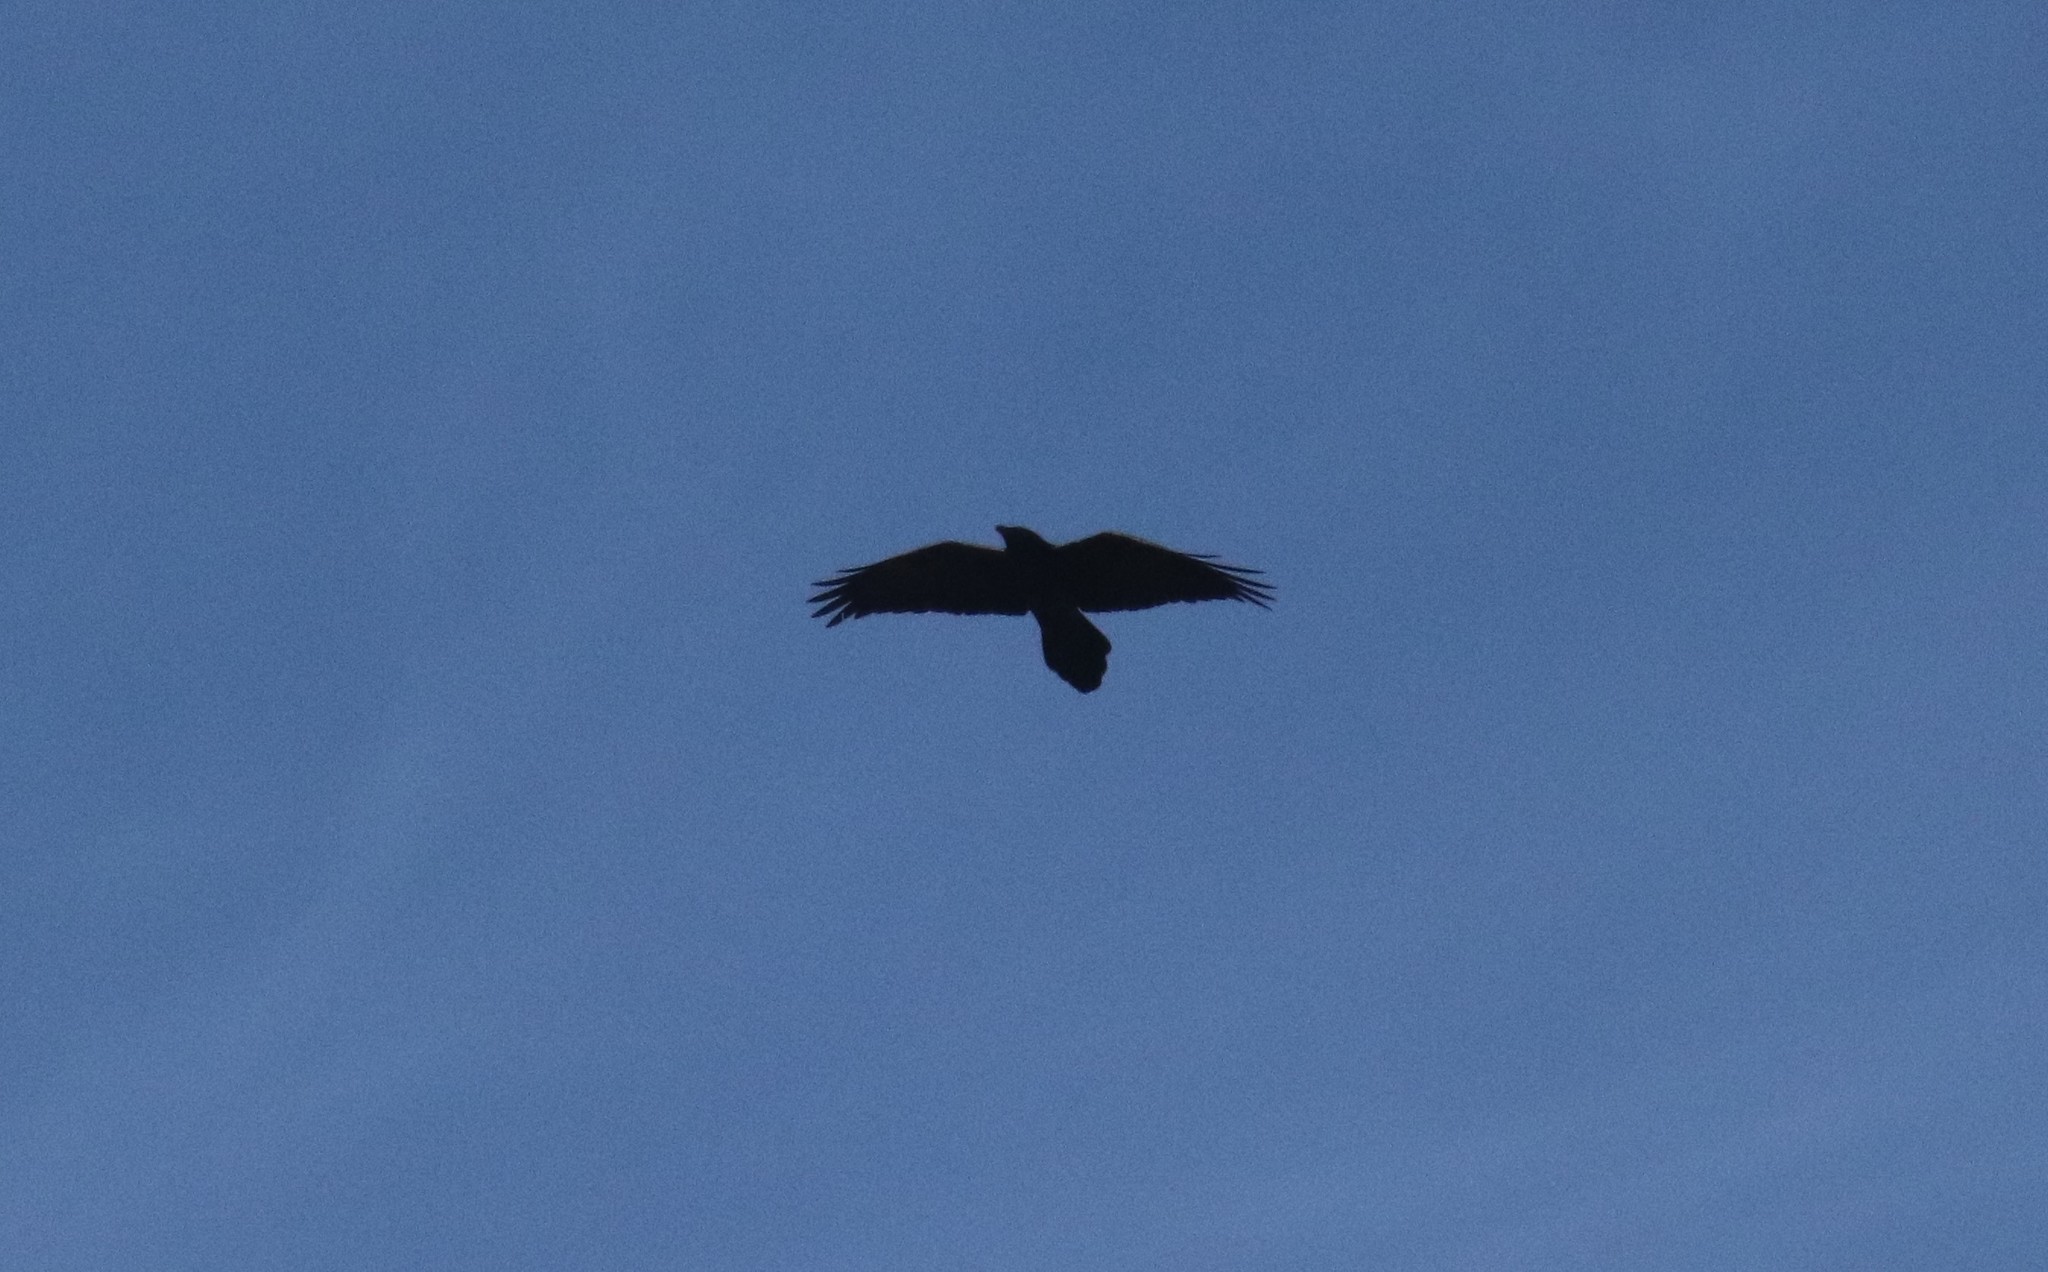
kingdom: Animalia
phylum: Chordata
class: Aves
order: Passeriformes
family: Corvidae
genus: Corvus
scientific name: Corvus corax
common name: Common raven
